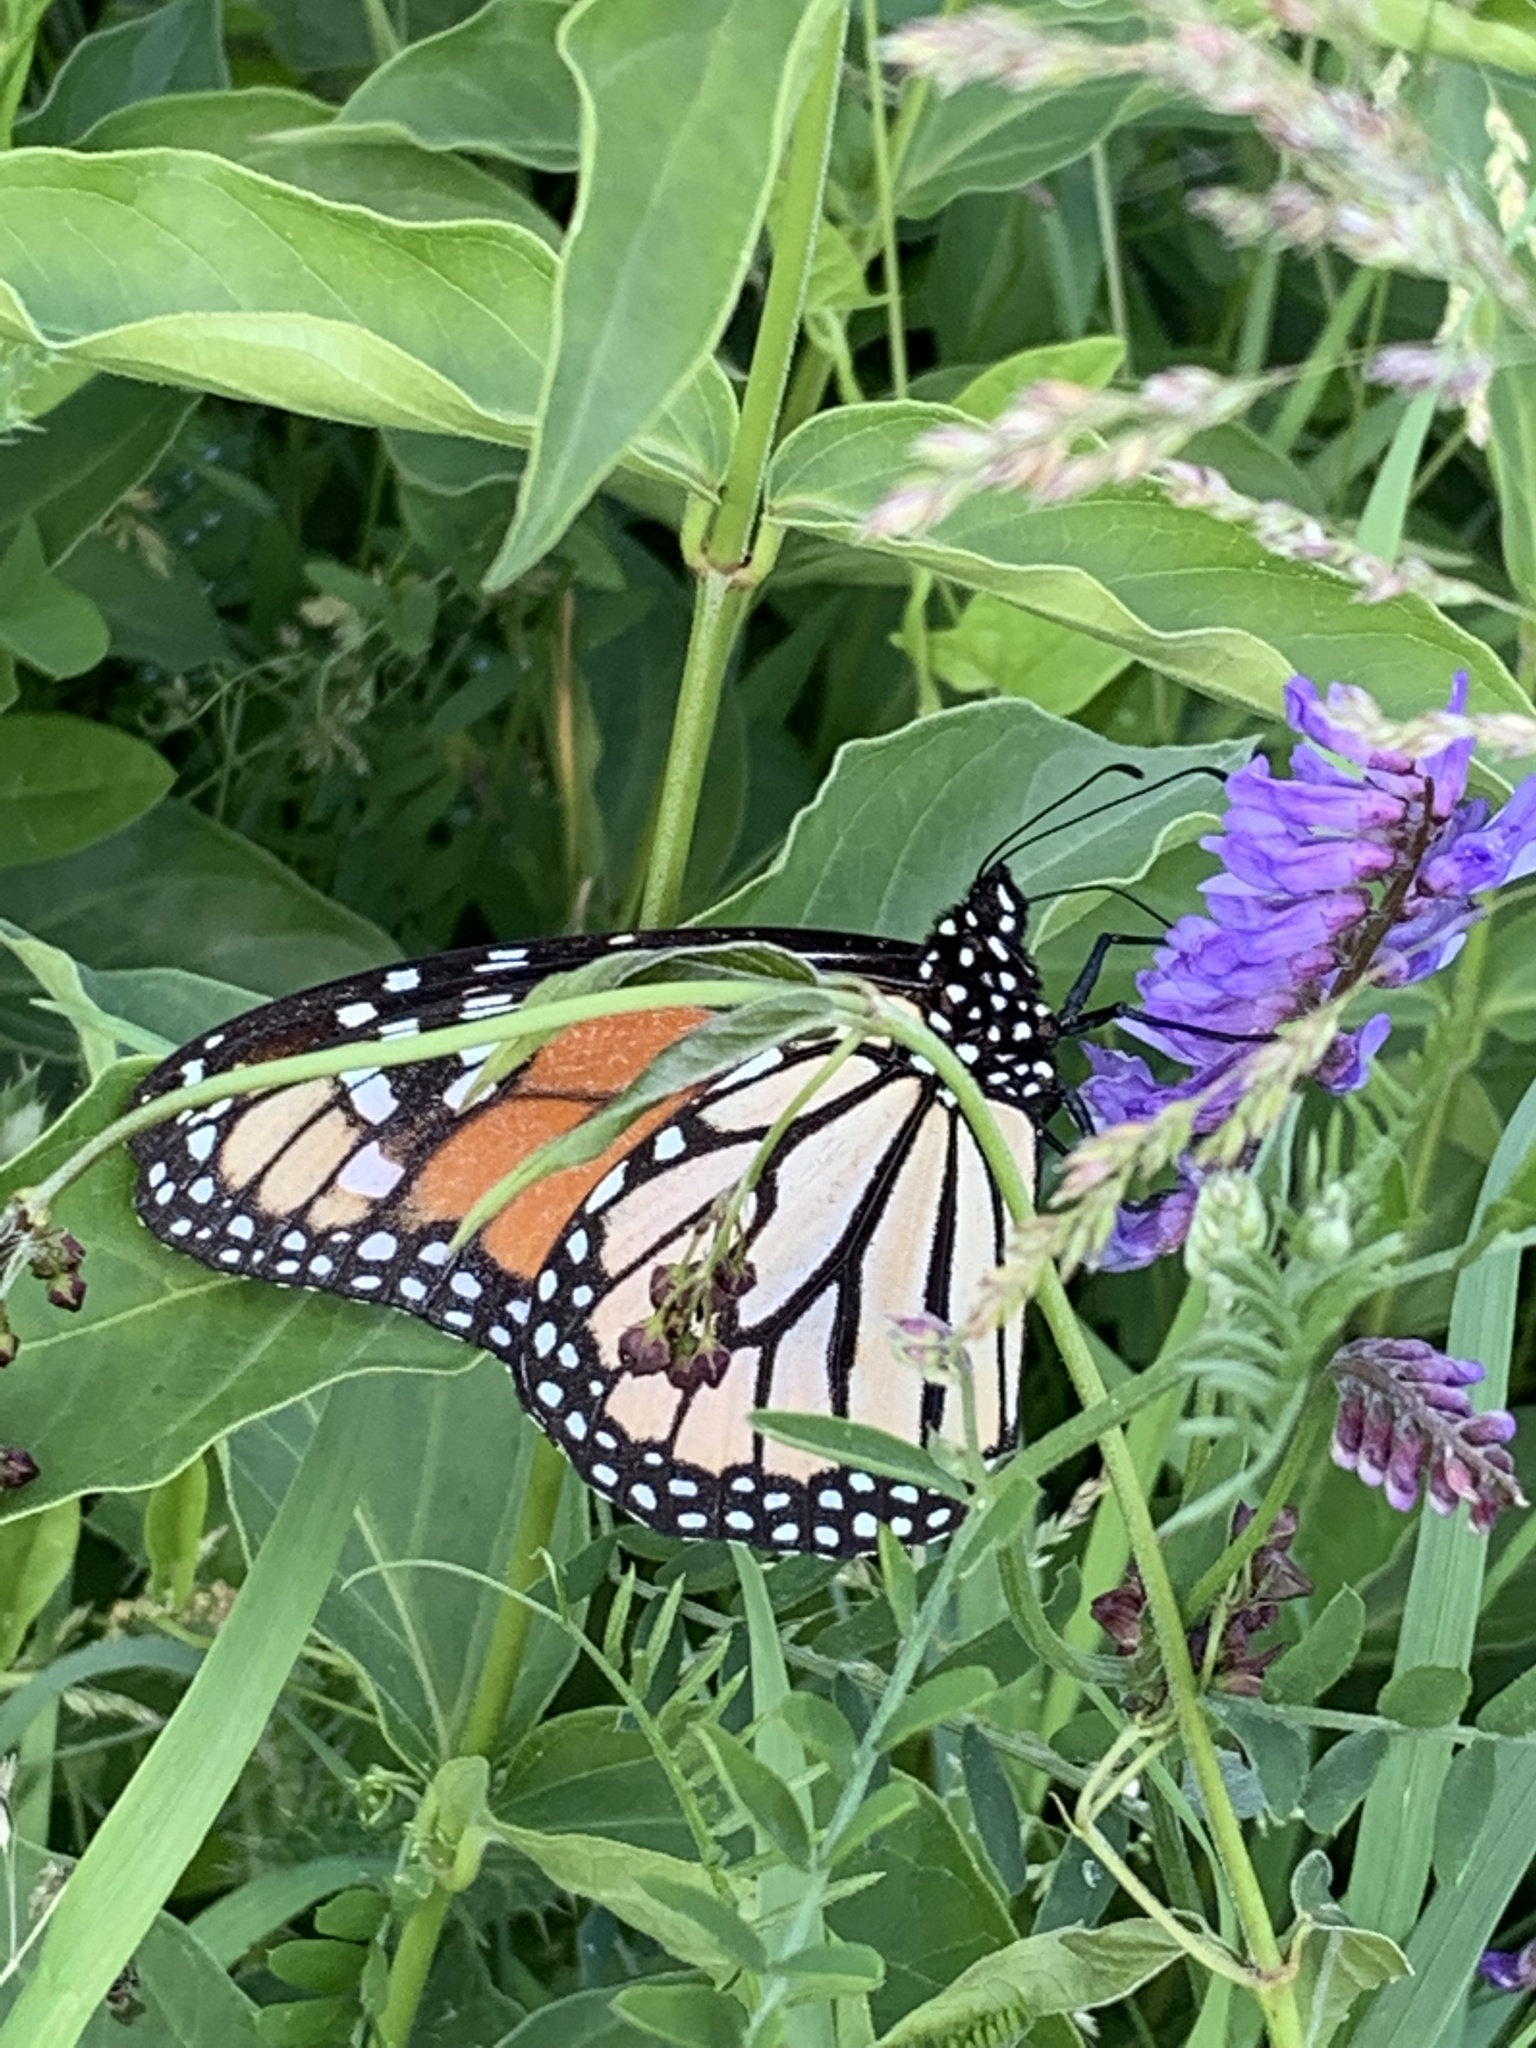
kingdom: Animalia
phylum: Arthropoda
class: Insecta
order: Lepidoptera
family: Nymphalidae
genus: Danaus
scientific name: Danaus plexippus
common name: Monarch
